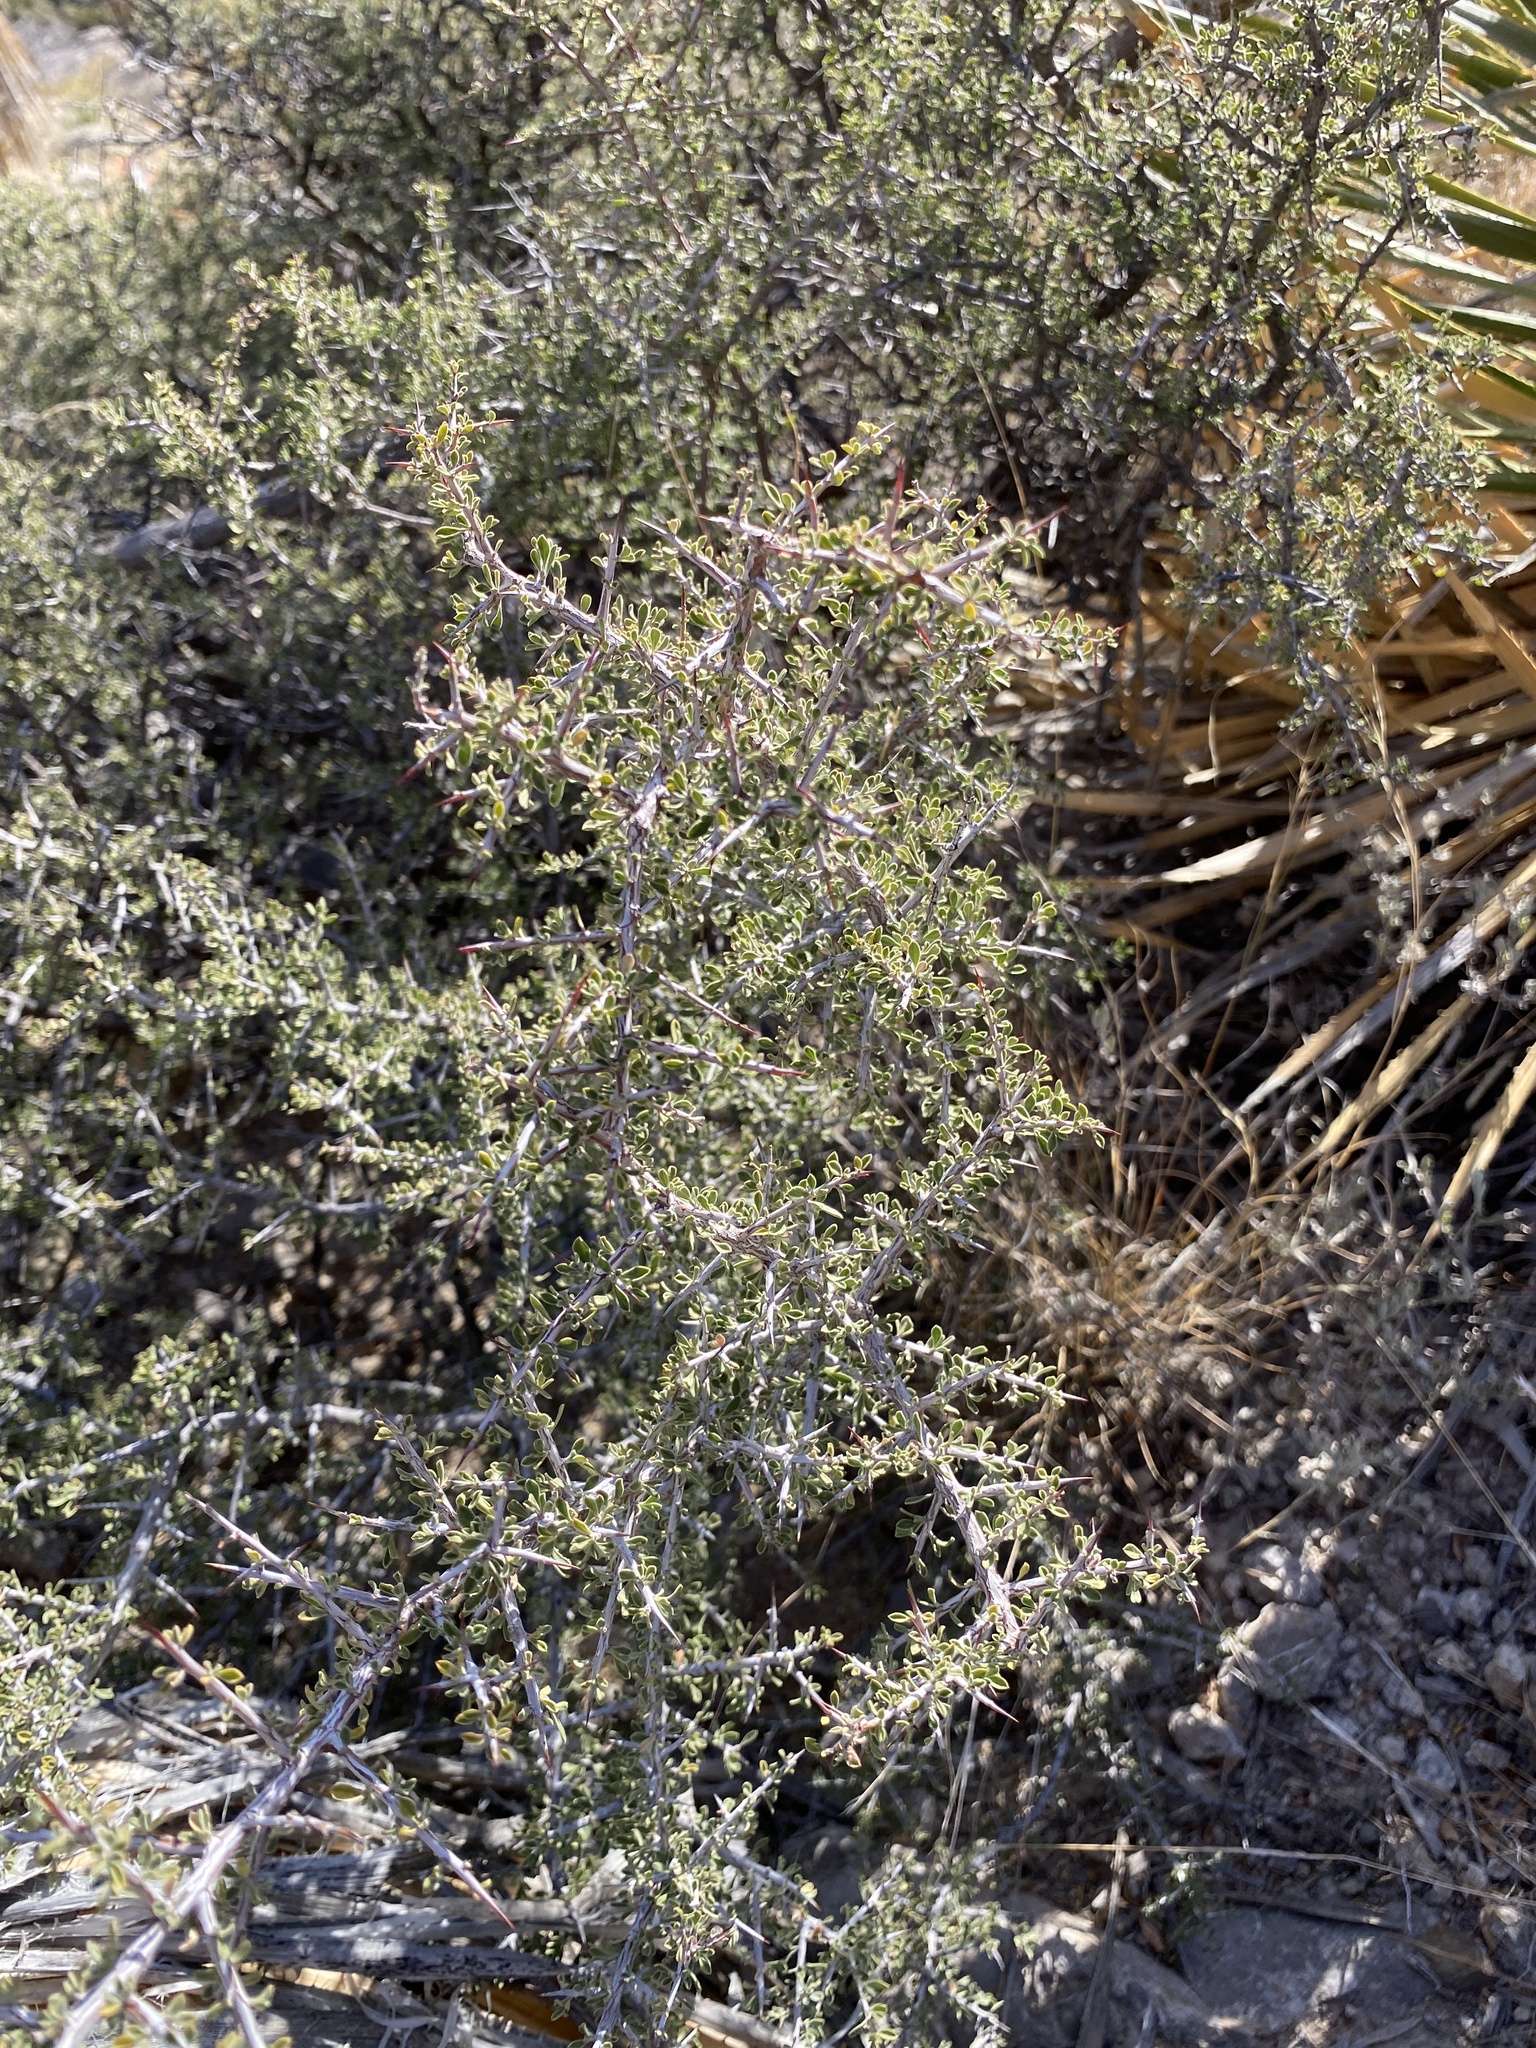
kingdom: Plantae
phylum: Tracheophyta
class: Magnoliopsida
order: Rosales
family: Rhamnaceae
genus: Condalia
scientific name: Condalia warnockii
